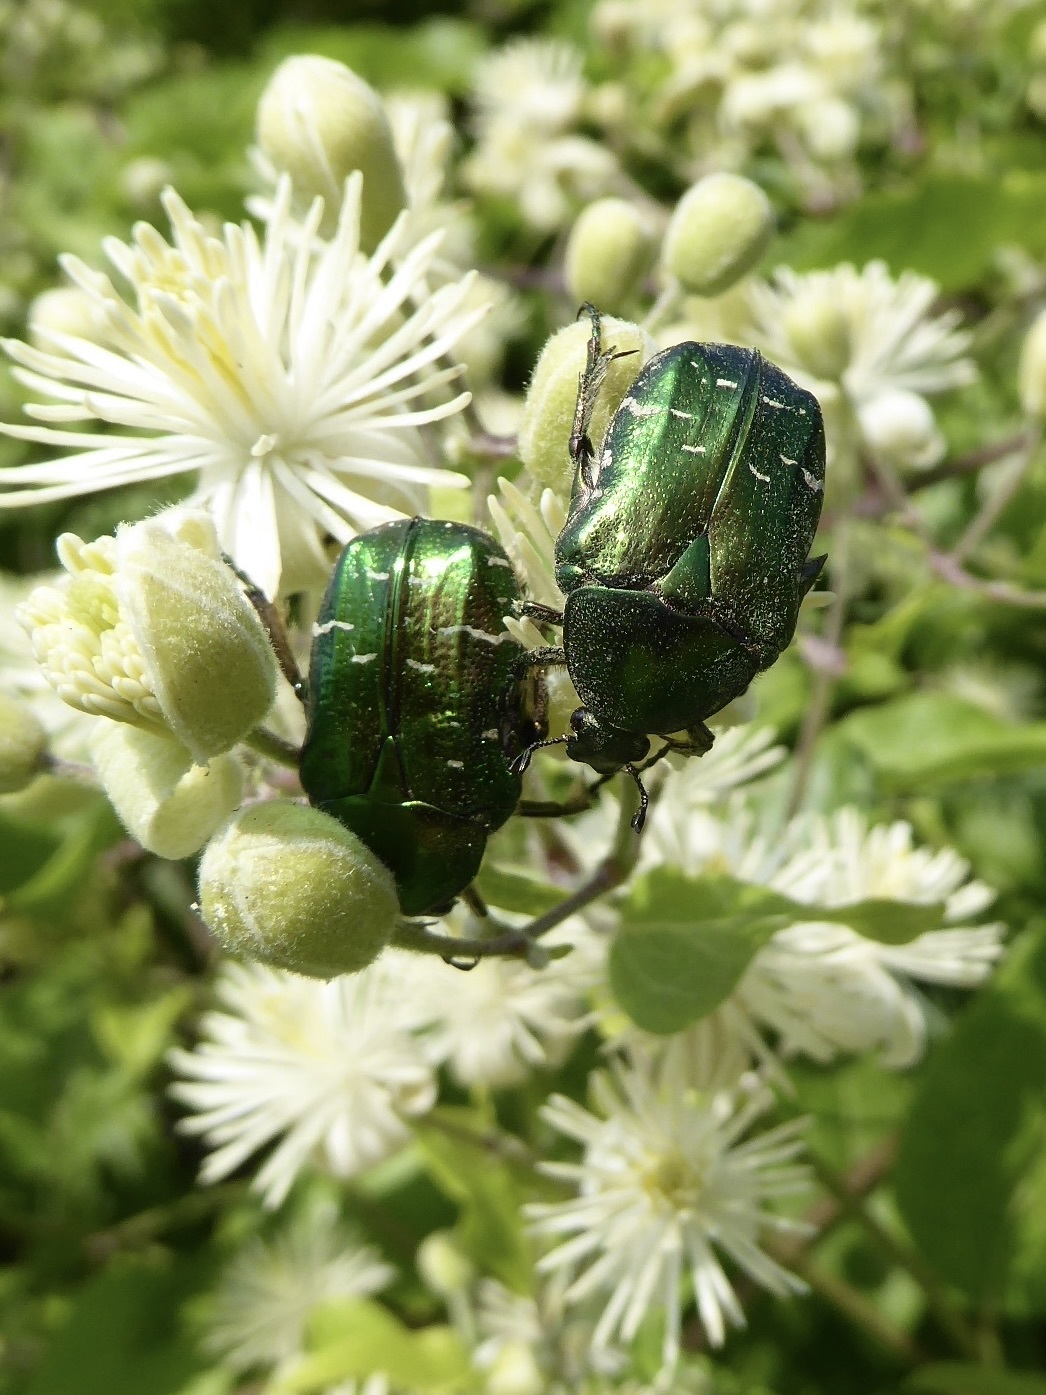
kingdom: Animalia
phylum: Arthropoda
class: Insecta
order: Coleoptera
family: Scarabaeidae
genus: Cetonia
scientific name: Cetonia aurata
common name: Rose chafer
